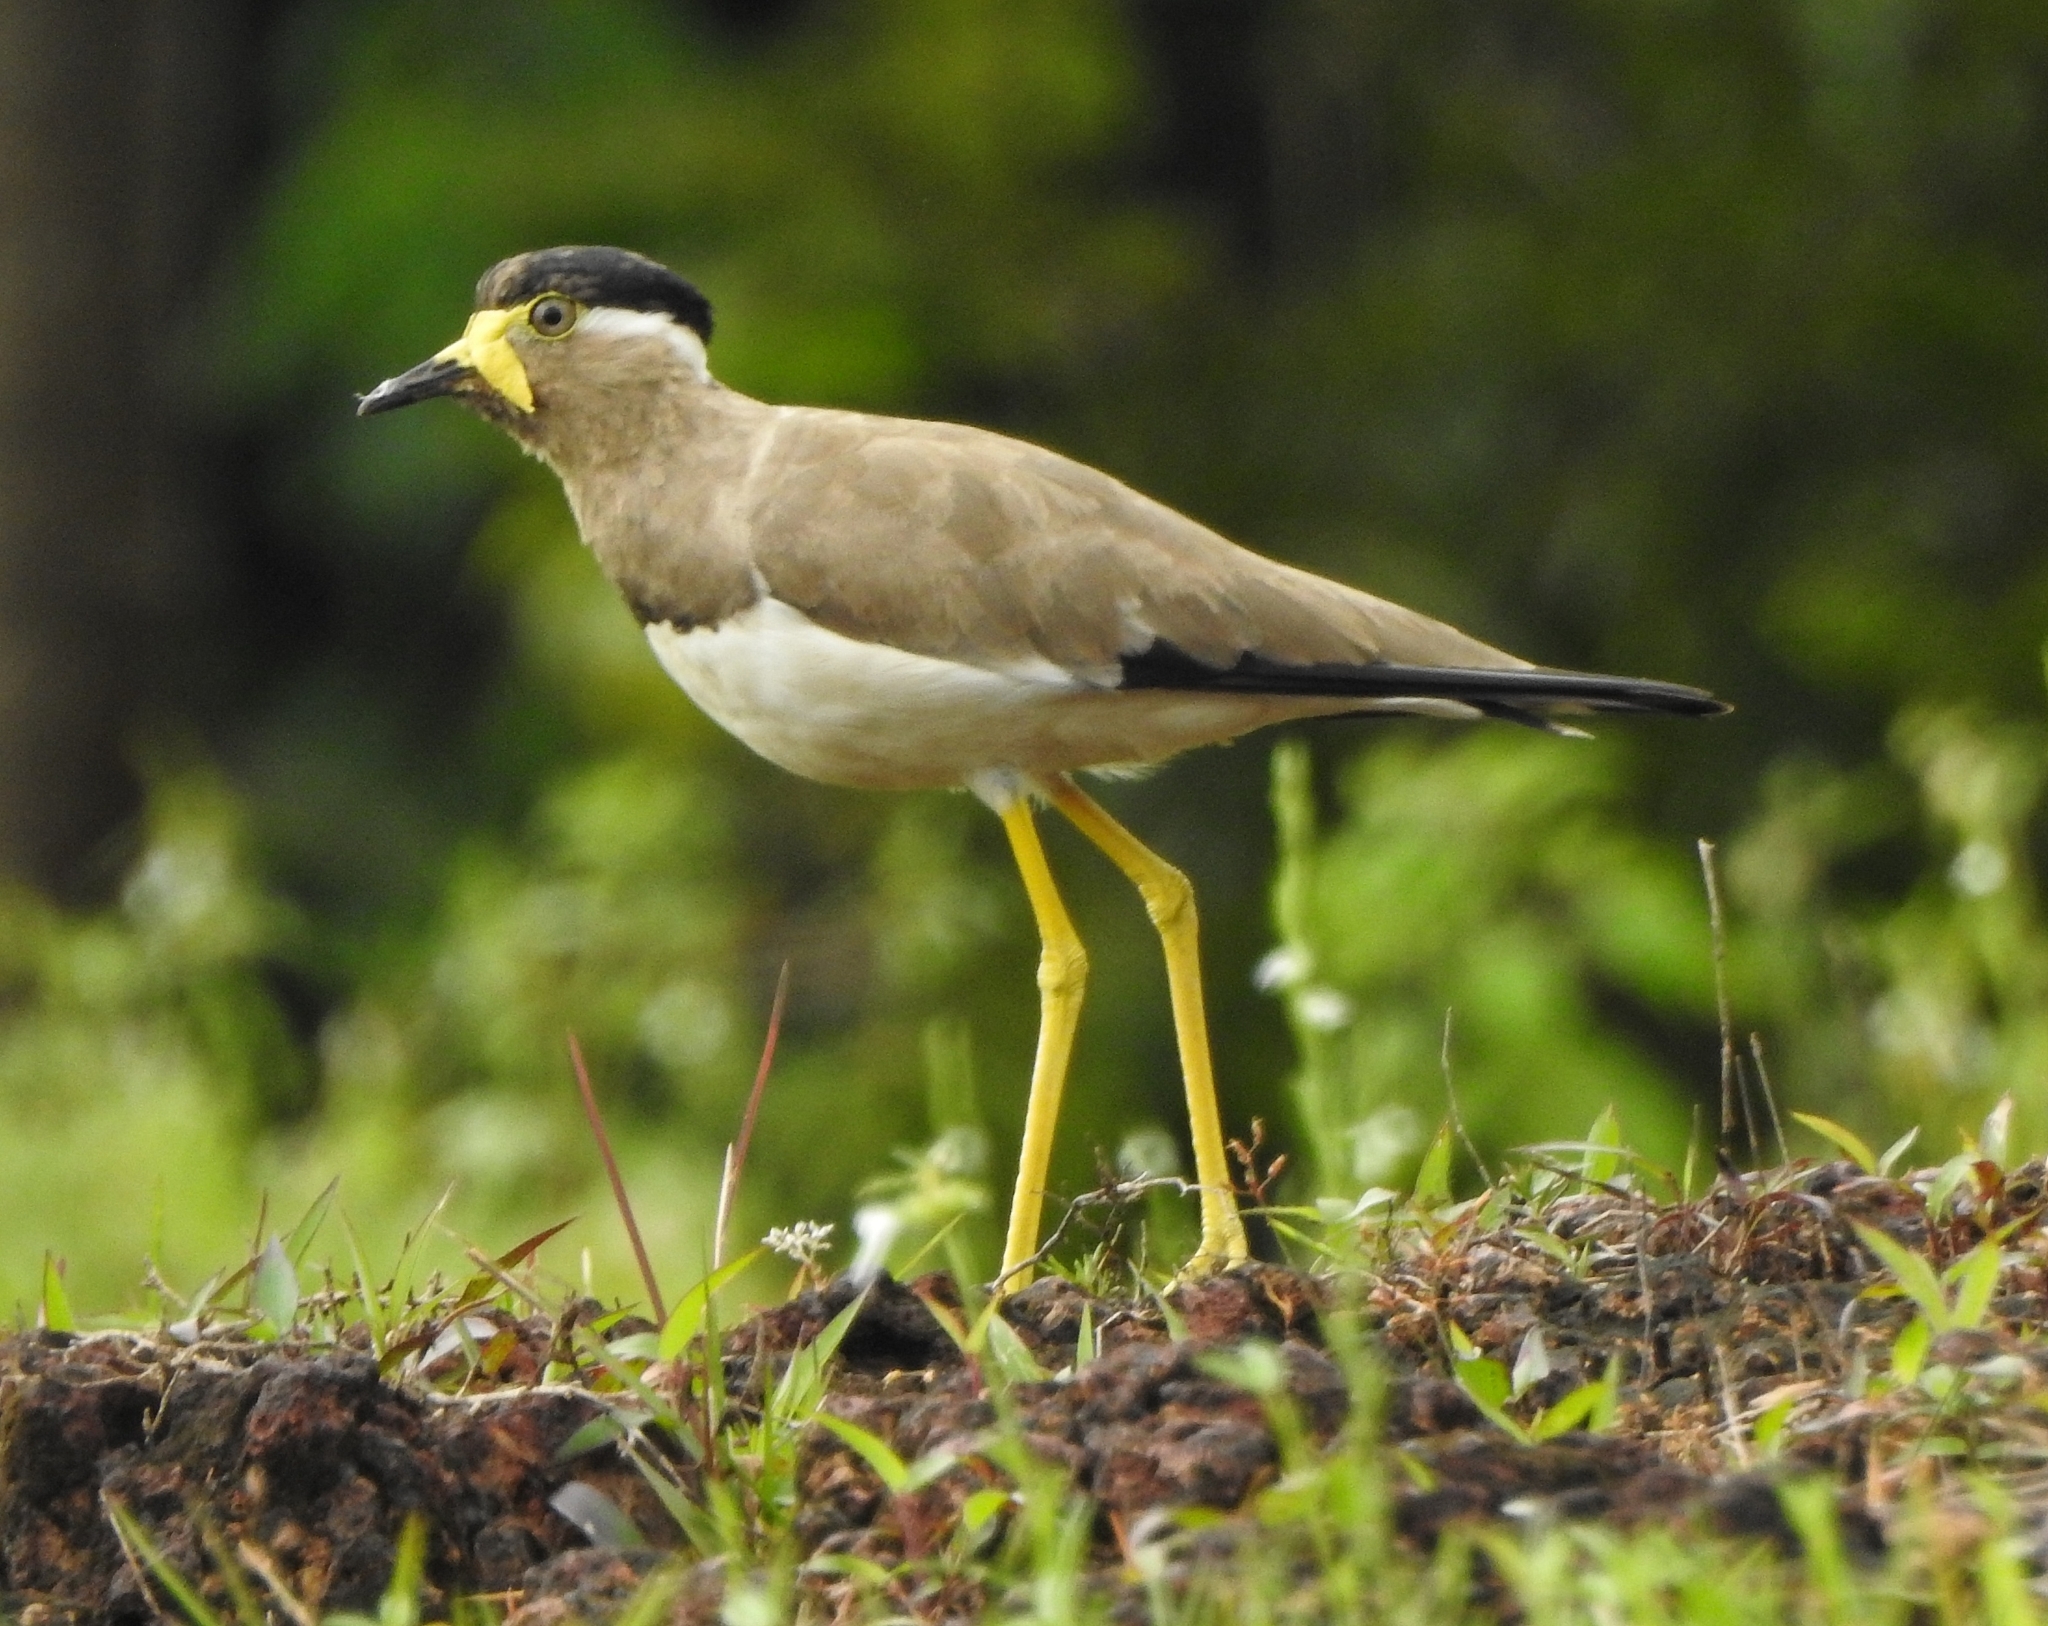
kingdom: Animalia
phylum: Chordata
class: Aves
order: Charadriiformes
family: Charadriidae
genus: Vanellus
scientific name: Vanellus malabaricus
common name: Yellow-wattled lapwing
